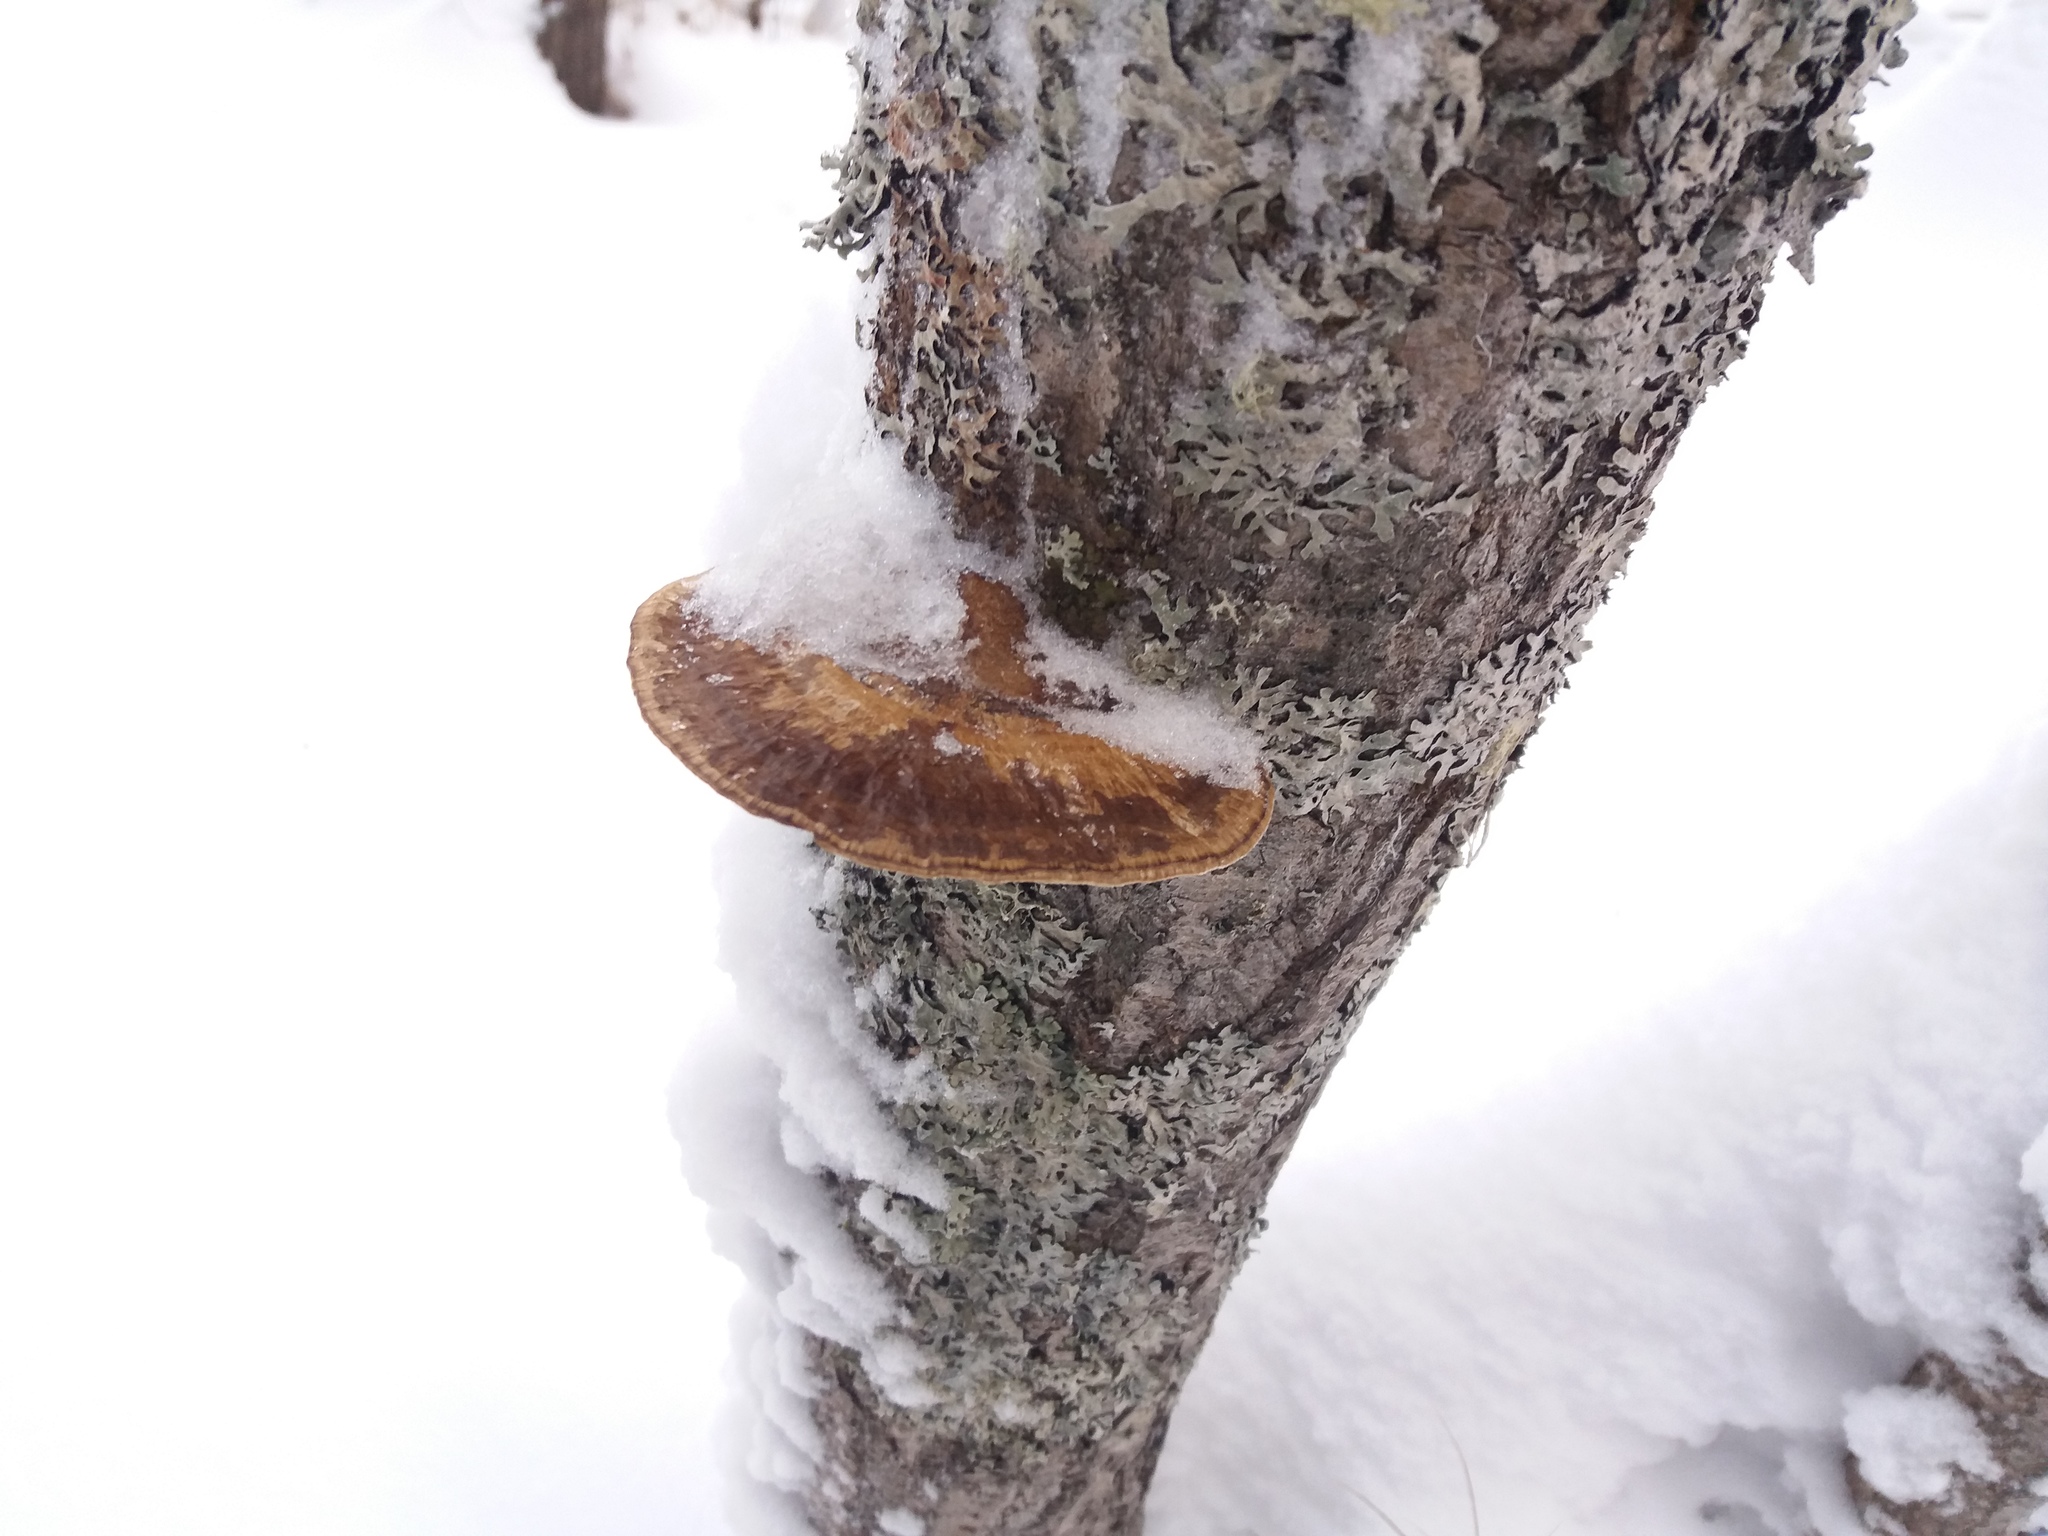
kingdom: Fungi
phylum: Basidiomycota
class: Agaricomycetes
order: Polyporales
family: Polyporaceae
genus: Daedaleopsis
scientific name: Daedaleopsis confragosa
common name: Blushing bracket
